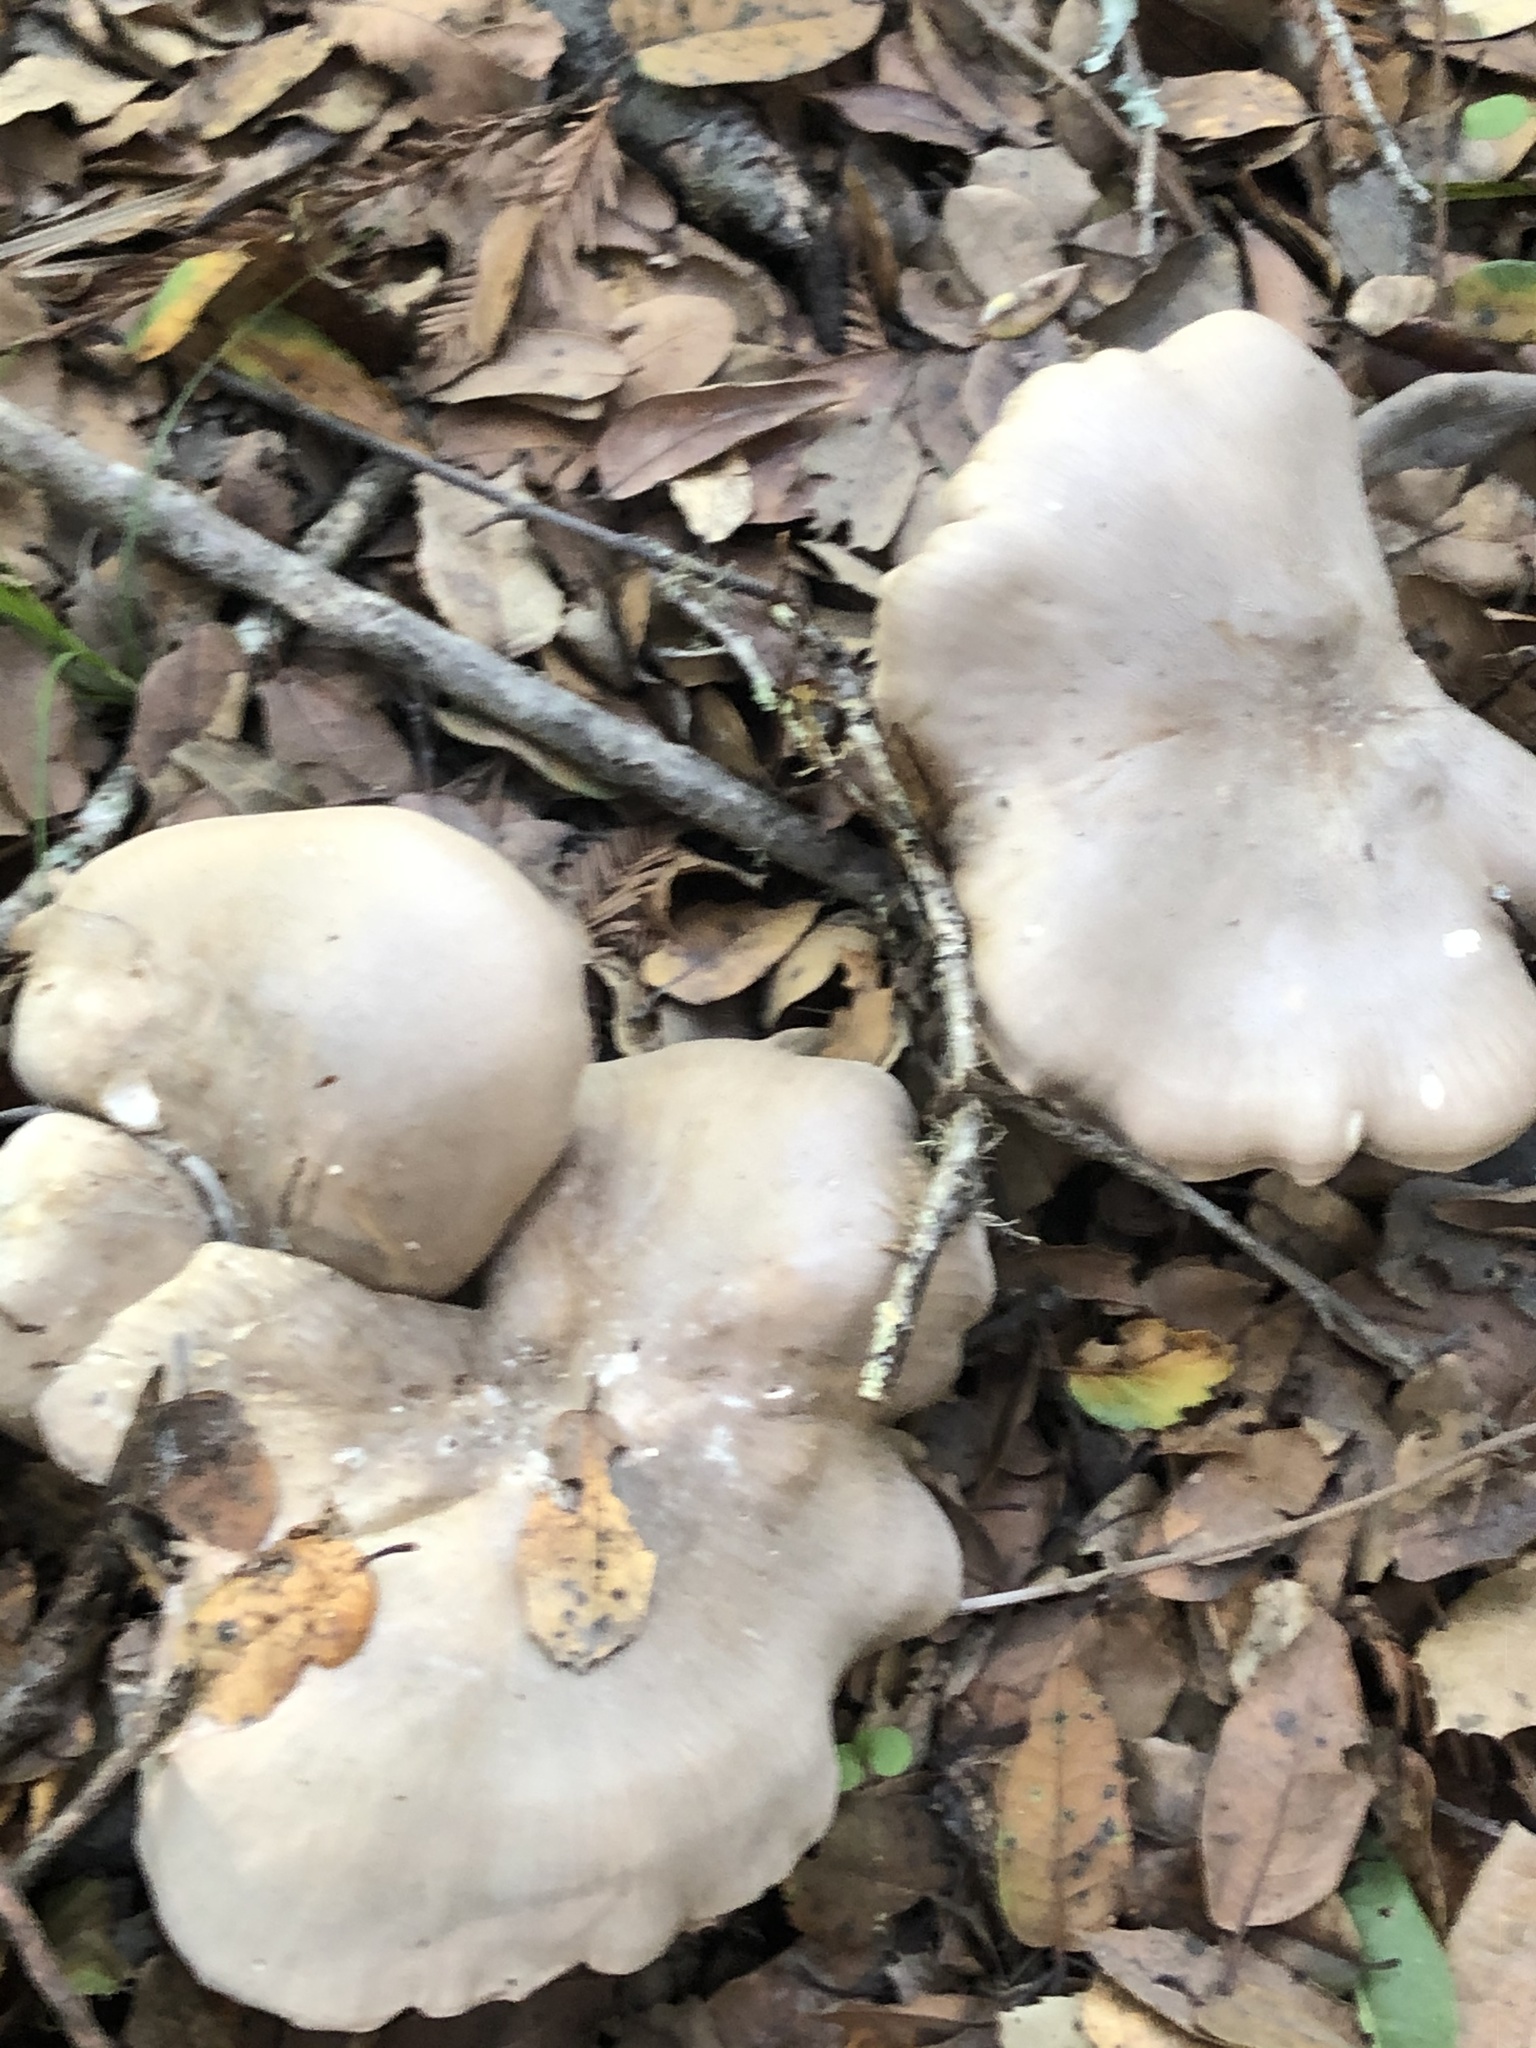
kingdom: Fungi
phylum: Basidiomycota
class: Agaricomycetes
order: Agaricales
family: Tricholomataceae
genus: Clitocybe
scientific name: Clitocybe nebularis
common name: Clouded agaric
